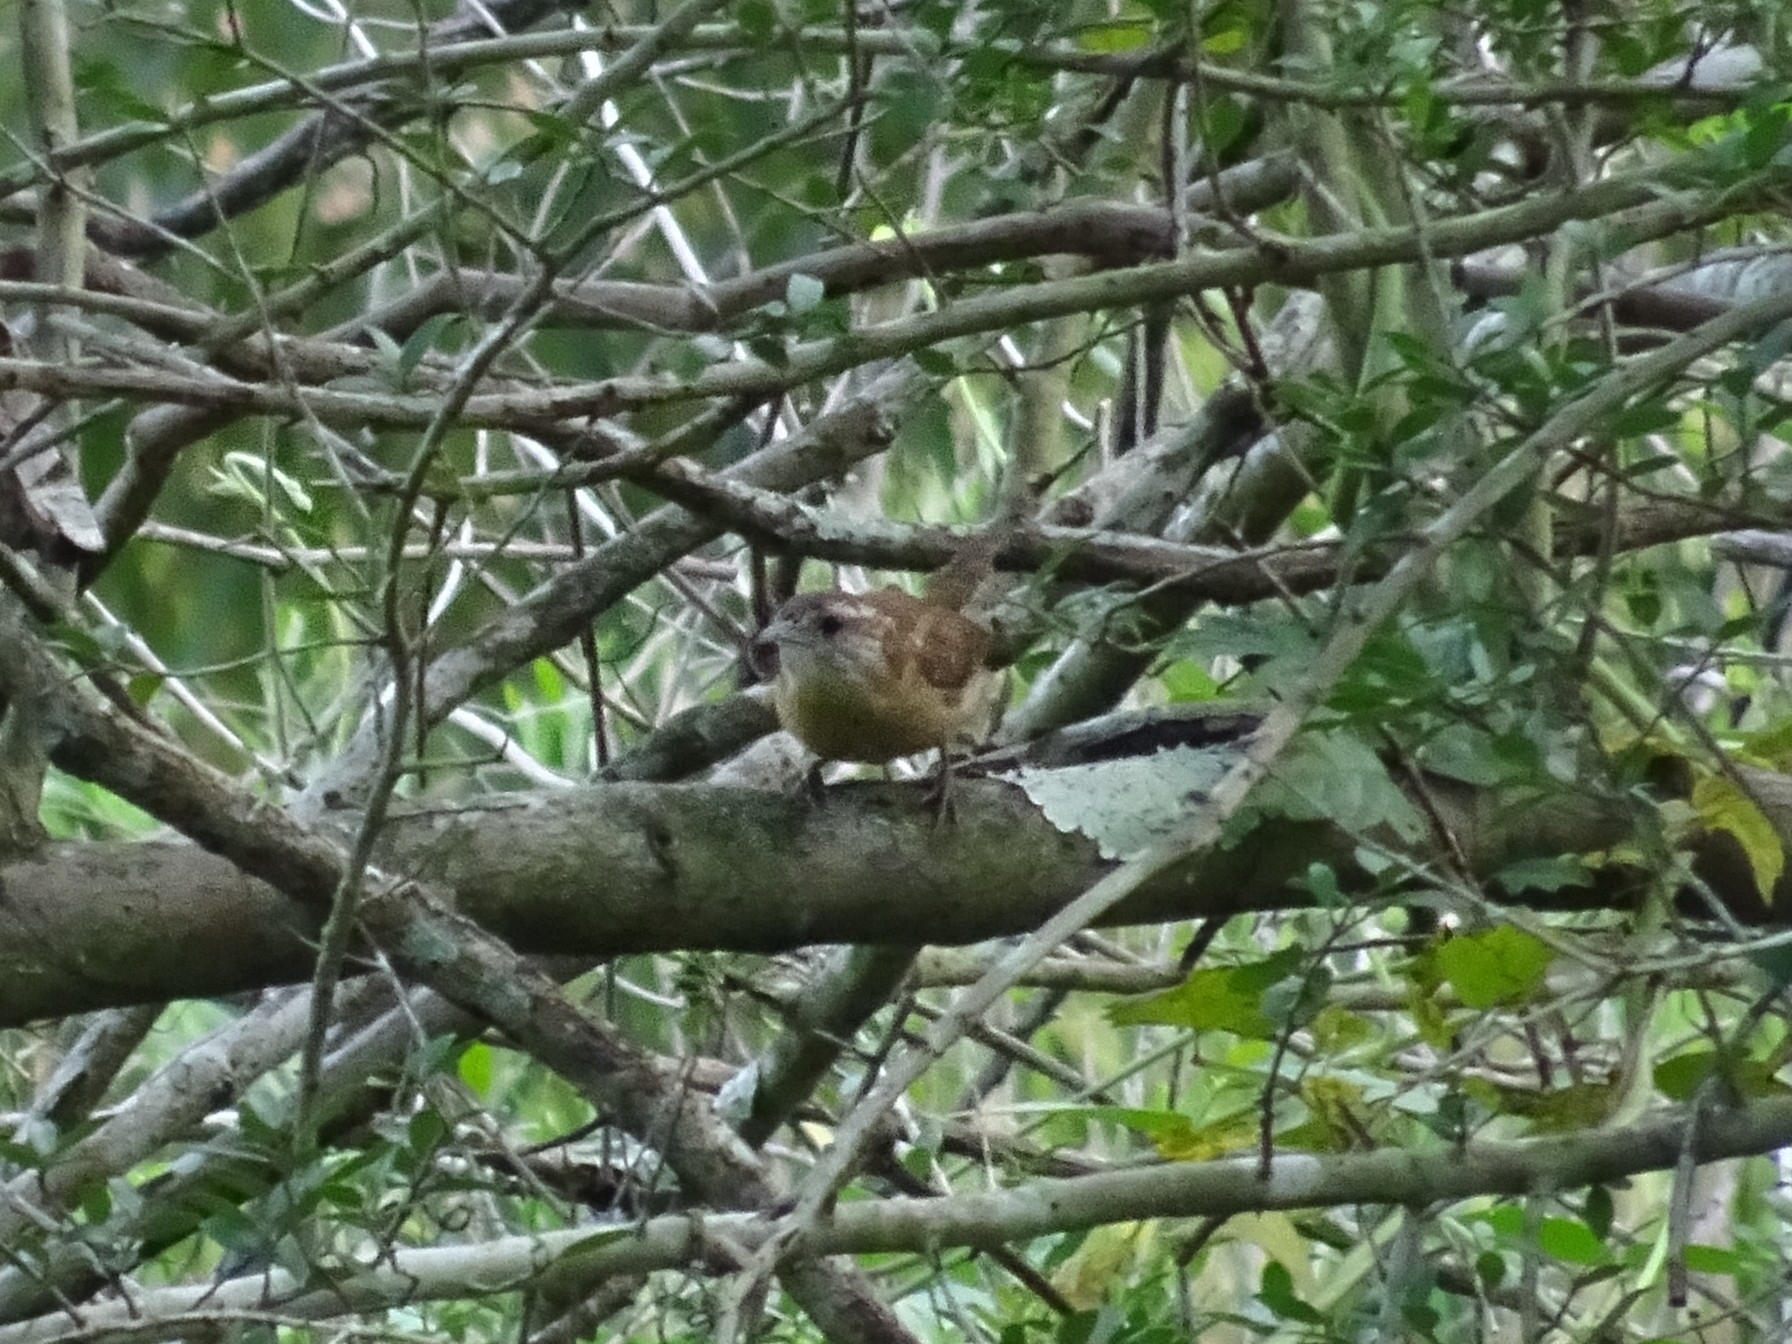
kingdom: Animalia
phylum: Chordata
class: Aves
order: Passeriformes
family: Troglodytidae
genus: Thryothorus
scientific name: Thryothorus ludovicianus
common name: Carolina wren
